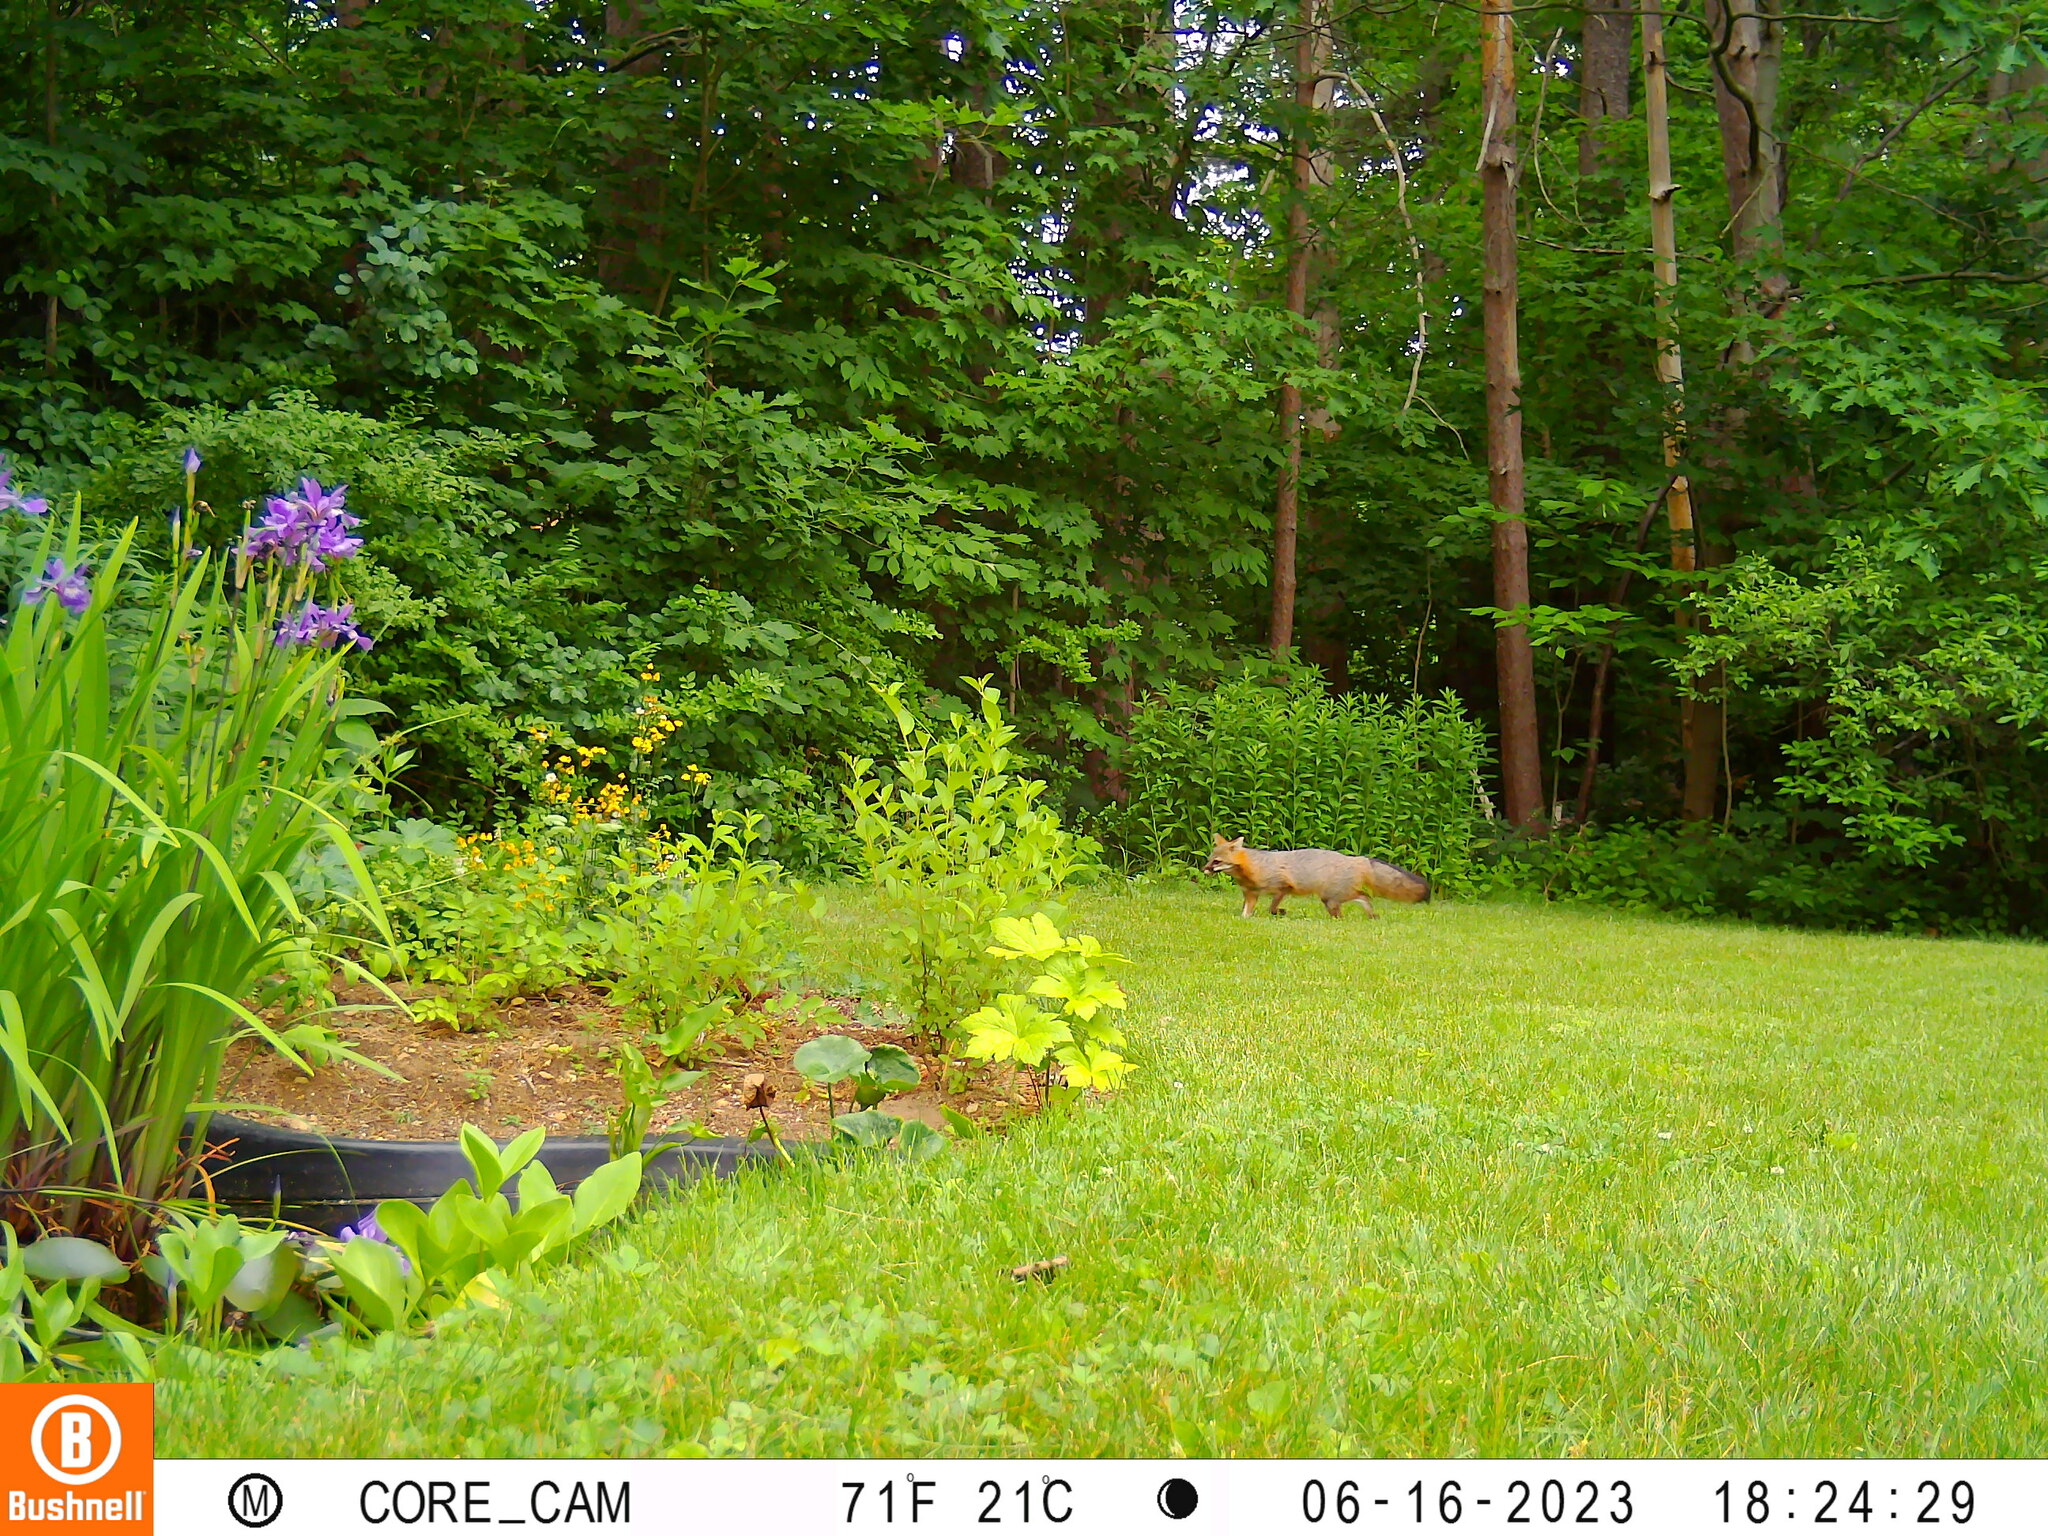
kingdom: Animalia
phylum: Chordata
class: Mammalia
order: Carnivora
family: Canidae
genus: Urocyon
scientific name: Urocyon cinereoargenteus
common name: Gray fox
